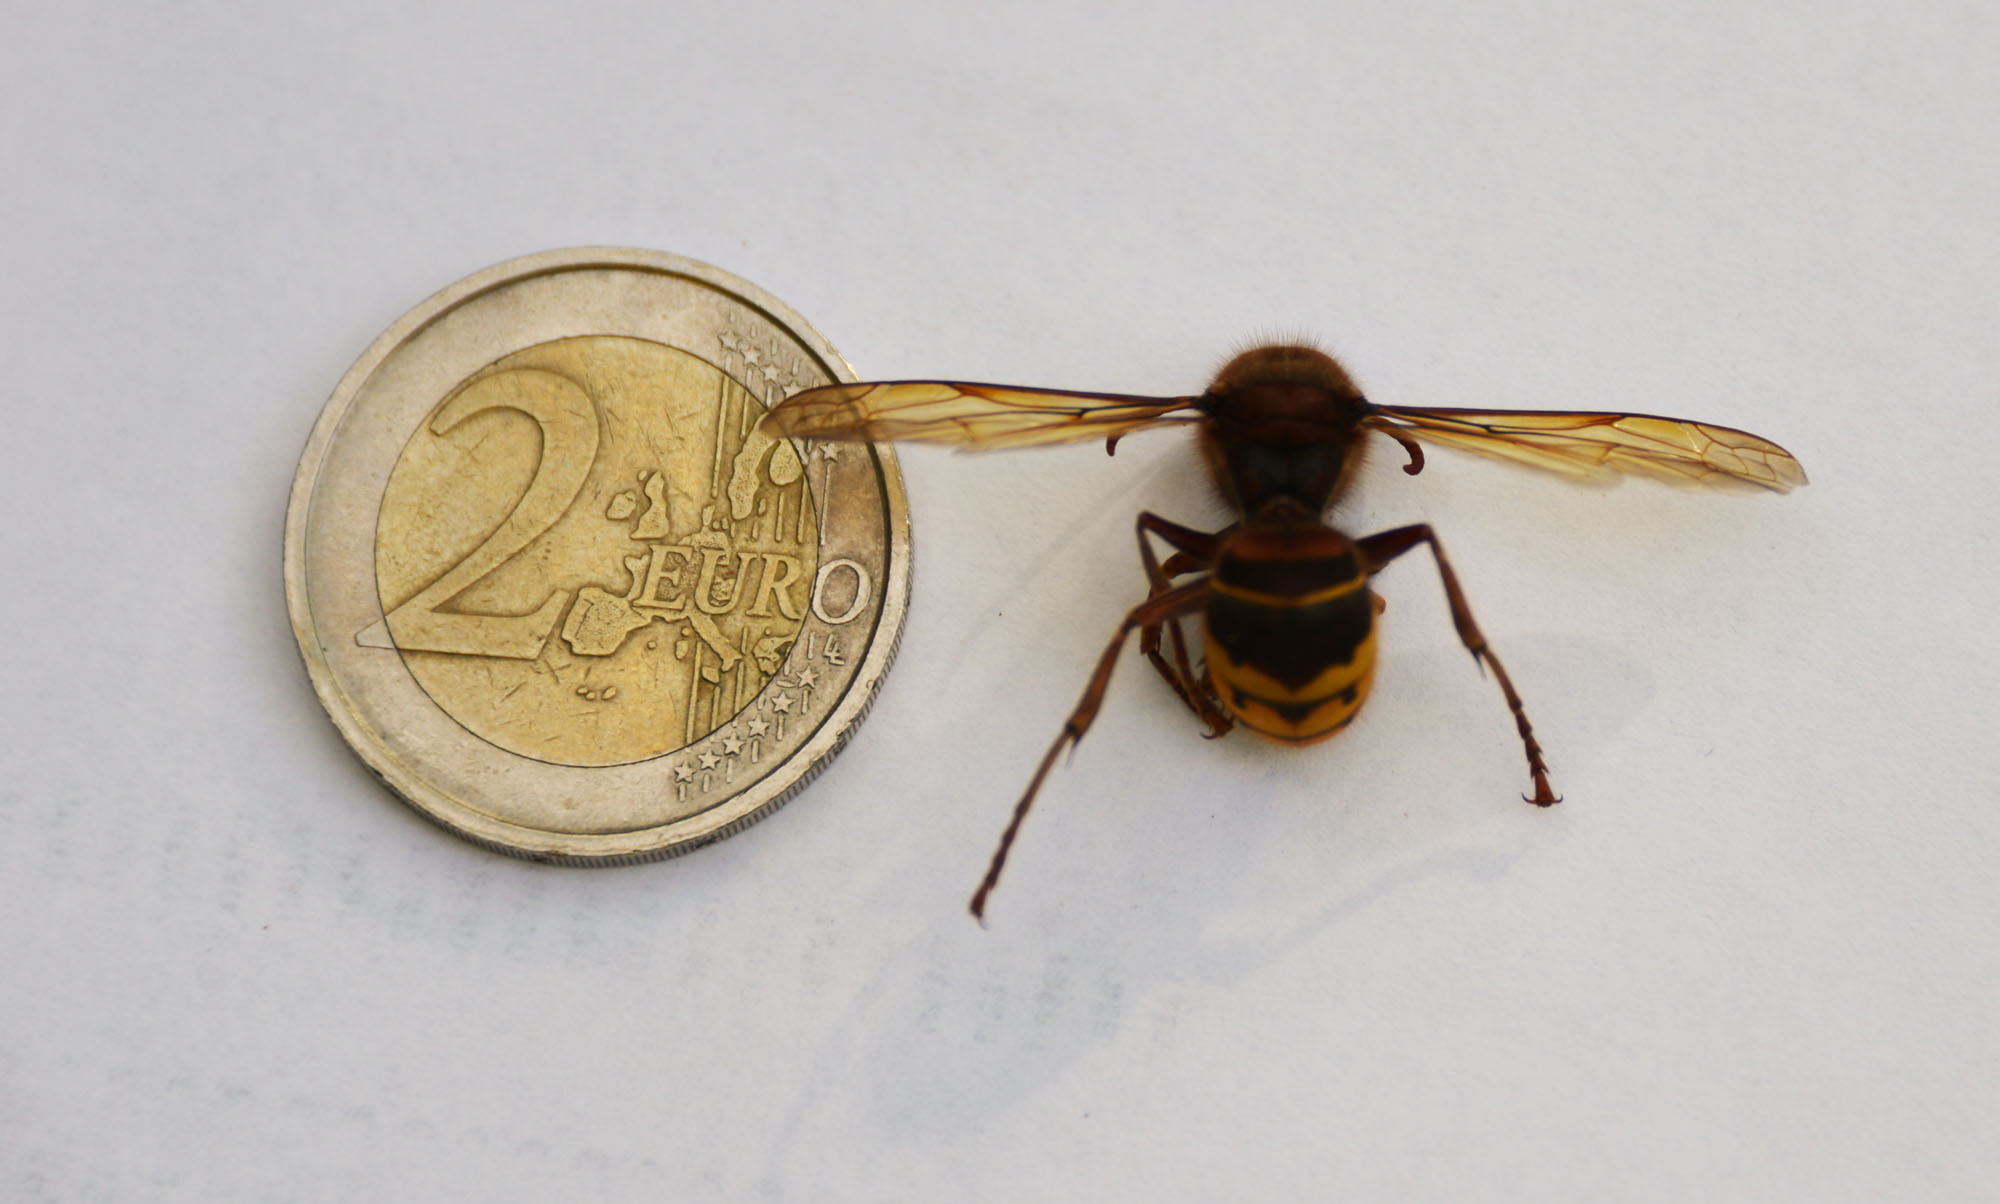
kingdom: Animalia
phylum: Arthropoda
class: Insecta
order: Hymenoptera
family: Vespidae
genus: Vespa
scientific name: Vespa crabro
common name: Hornet
